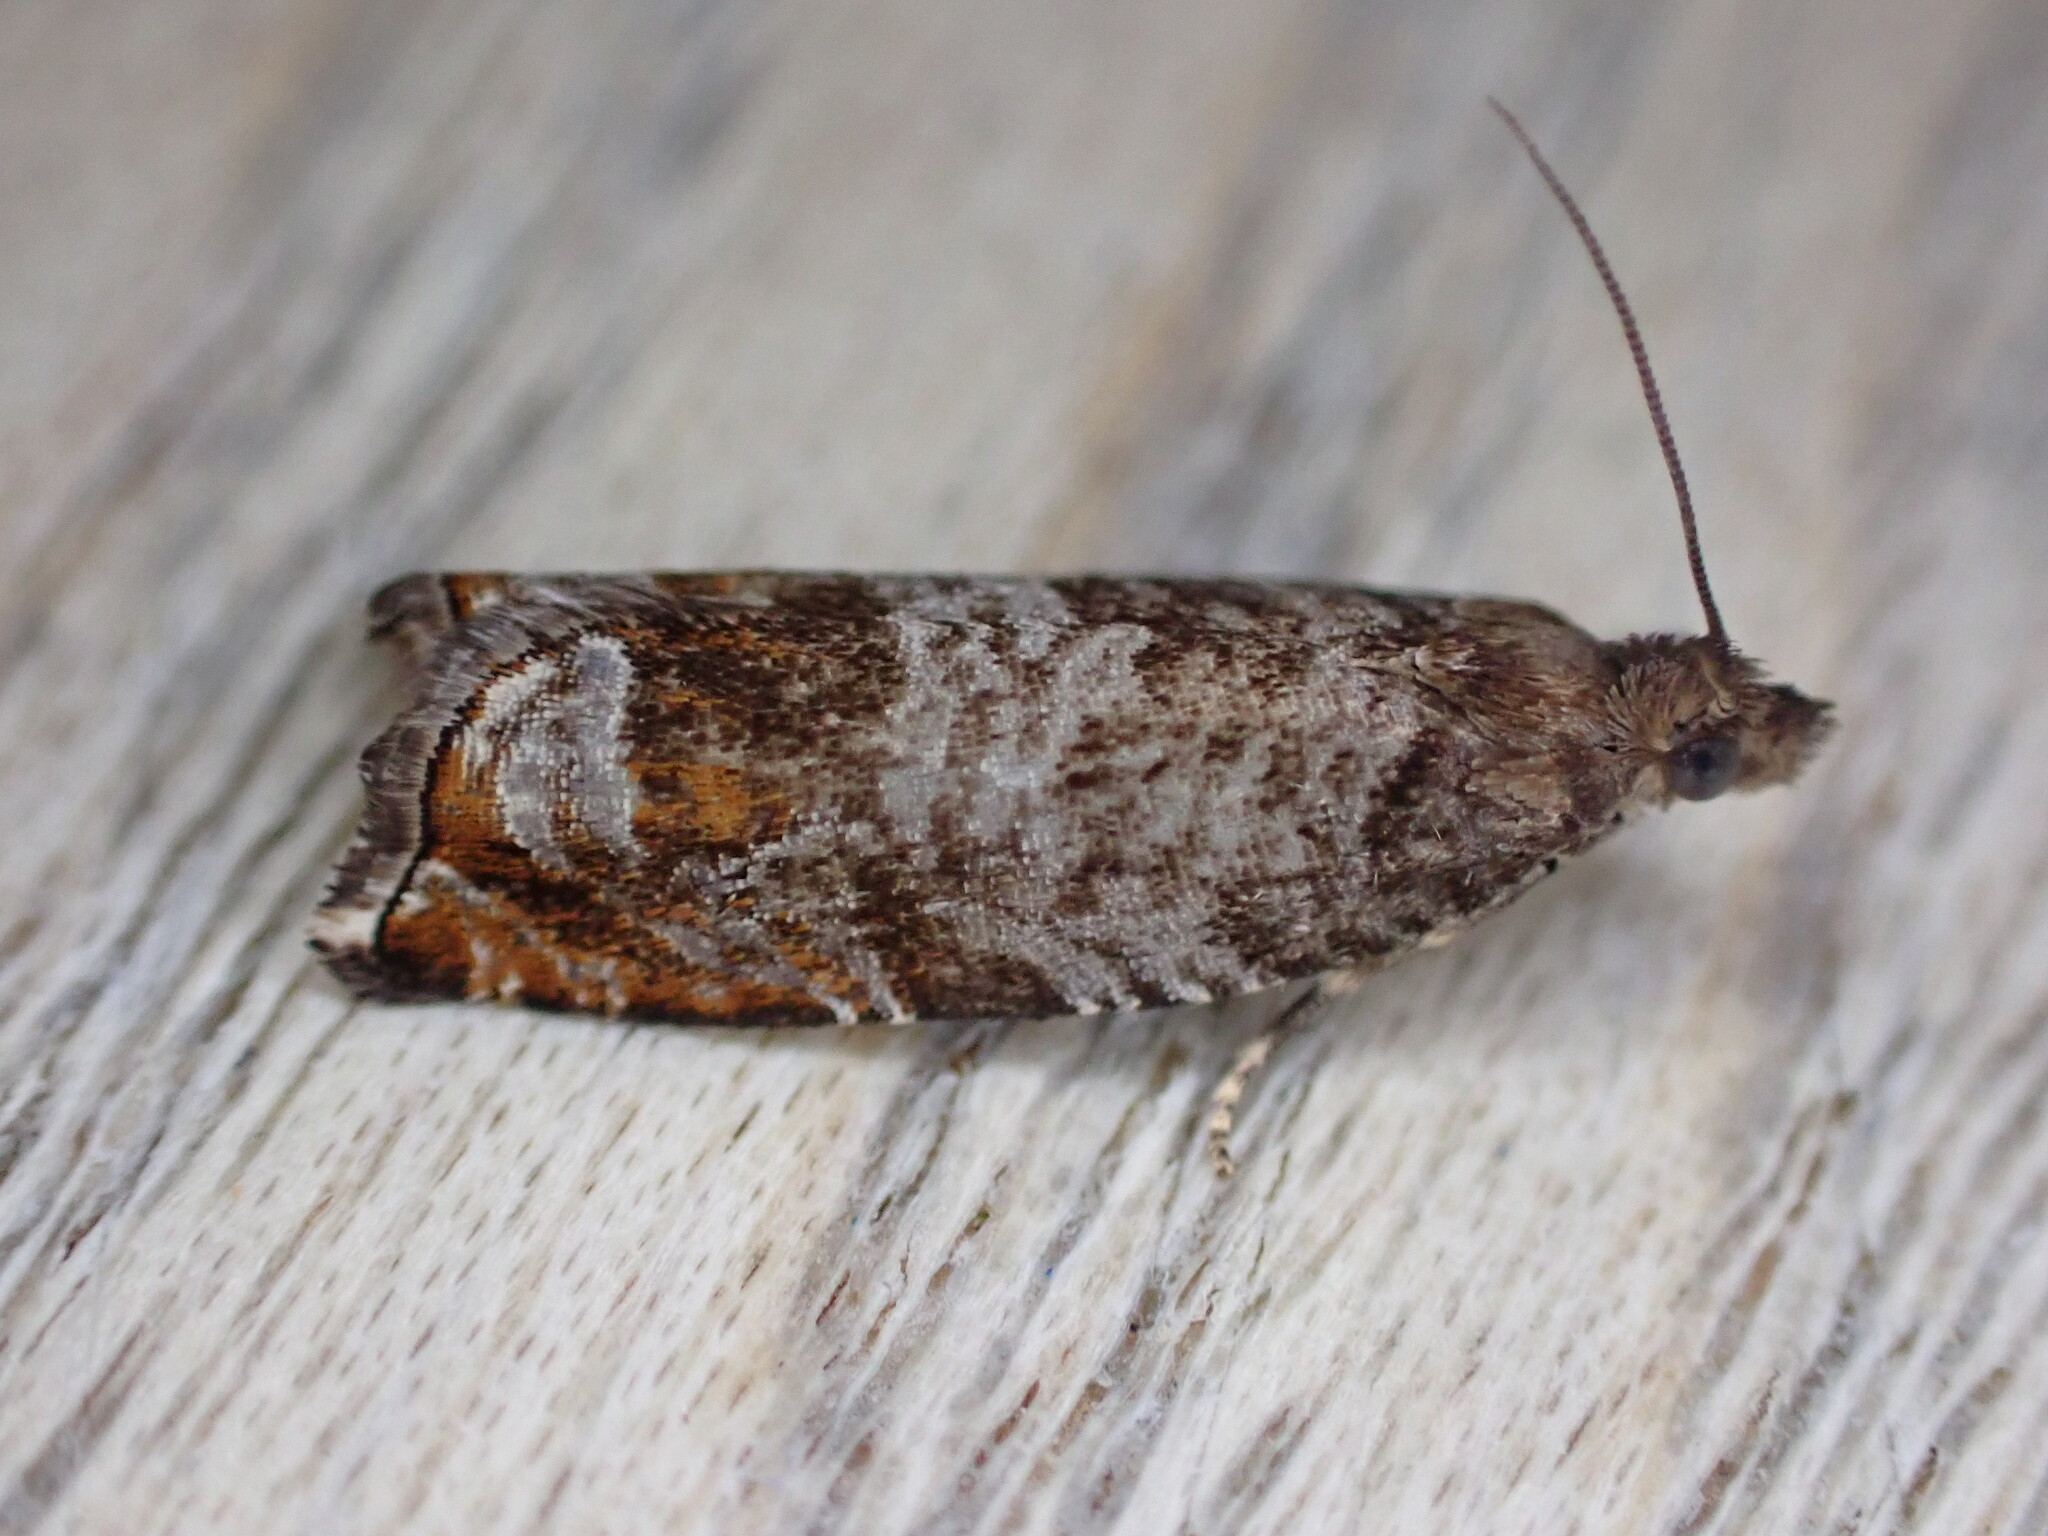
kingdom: Animalia
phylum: Arthropoda
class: Insecta
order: Lepidoptera
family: Tortricidae
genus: Ancylis
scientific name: Ancylis achatana
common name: Triangle-marked roller
